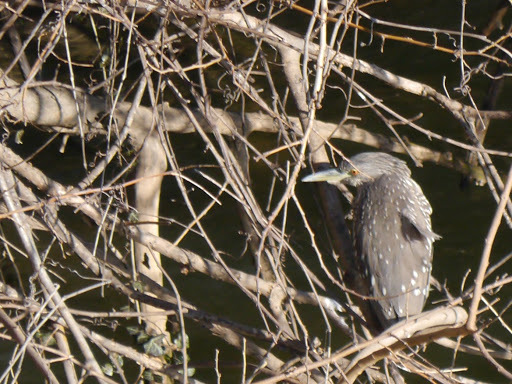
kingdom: Animalia
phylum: Chordata
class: Aves
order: Pelecaniformes
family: Ardeidae
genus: Nycticorax
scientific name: Nycticorax nycticorax
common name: Black-crowned night heron
